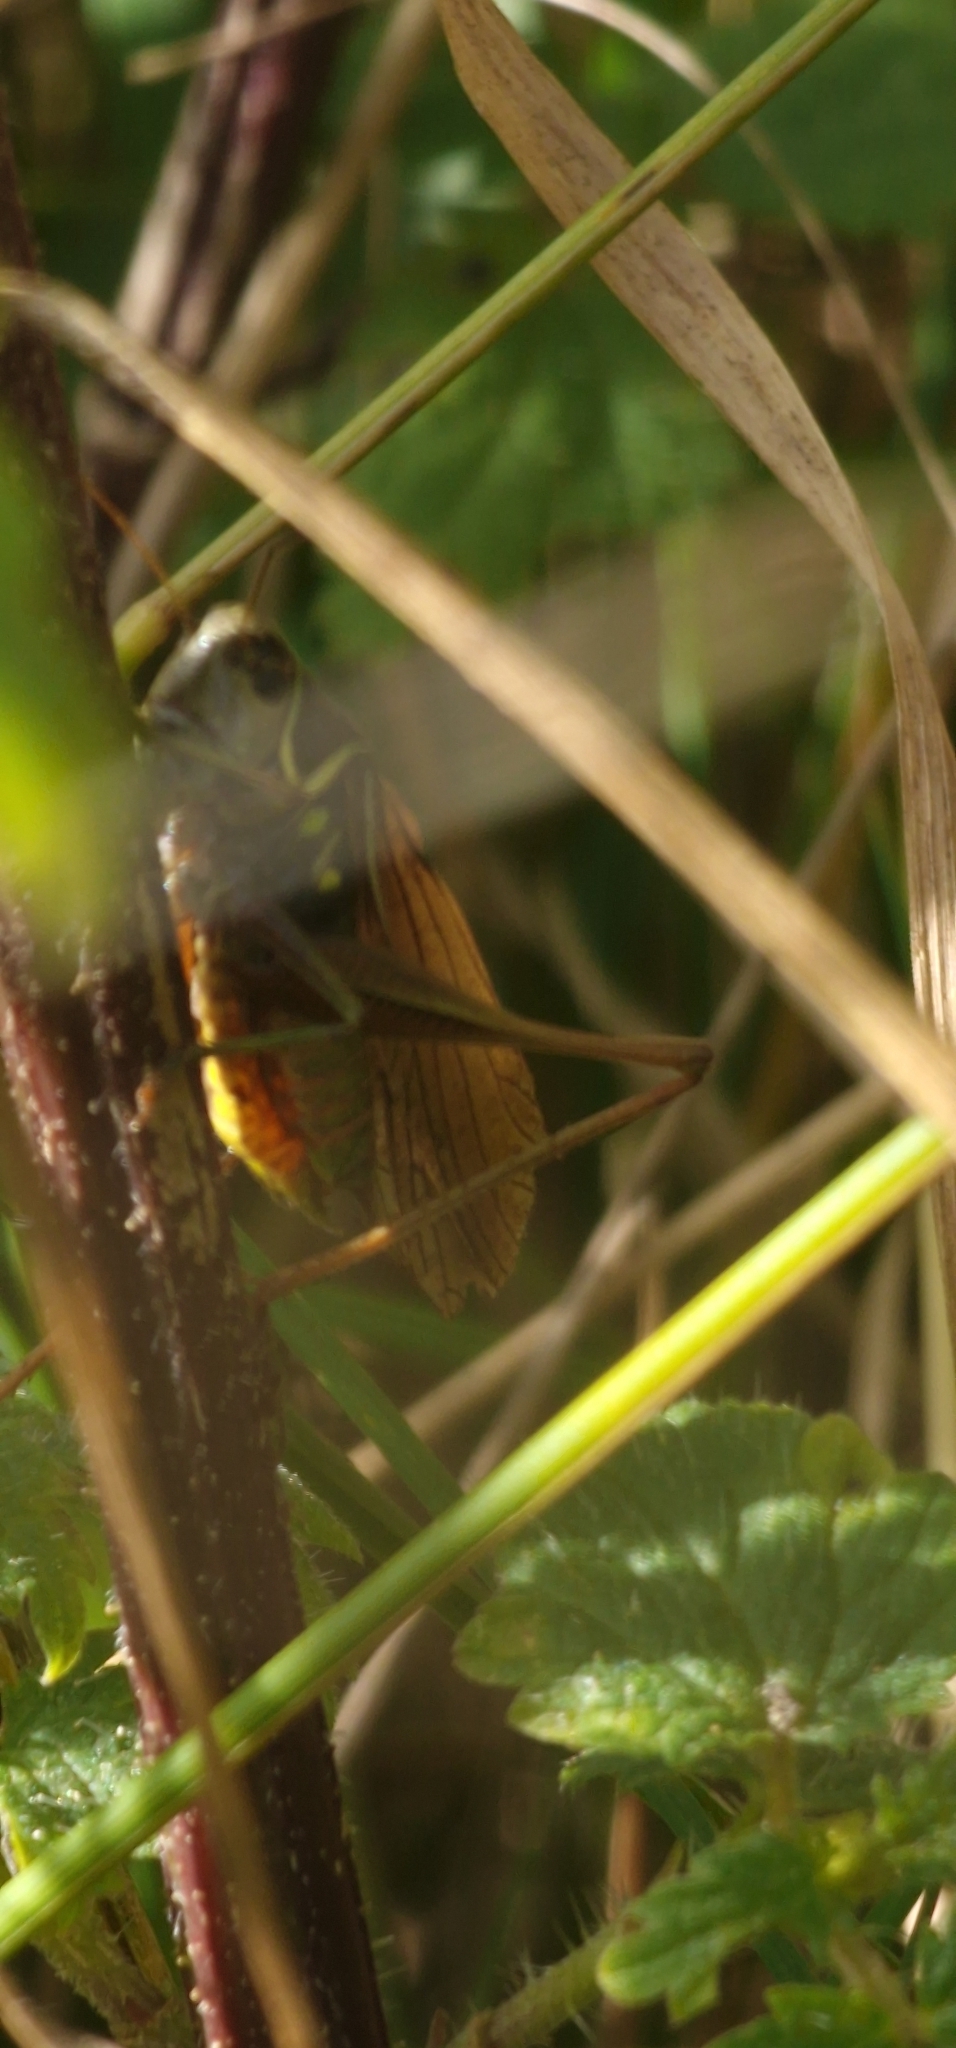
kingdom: Animalia
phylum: Arthropoda
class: Insecta
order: Orthoptera
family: Tettigoniidae
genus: Roeseliana
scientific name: Roeseliana roeselii
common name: Roesel's bush cricket
